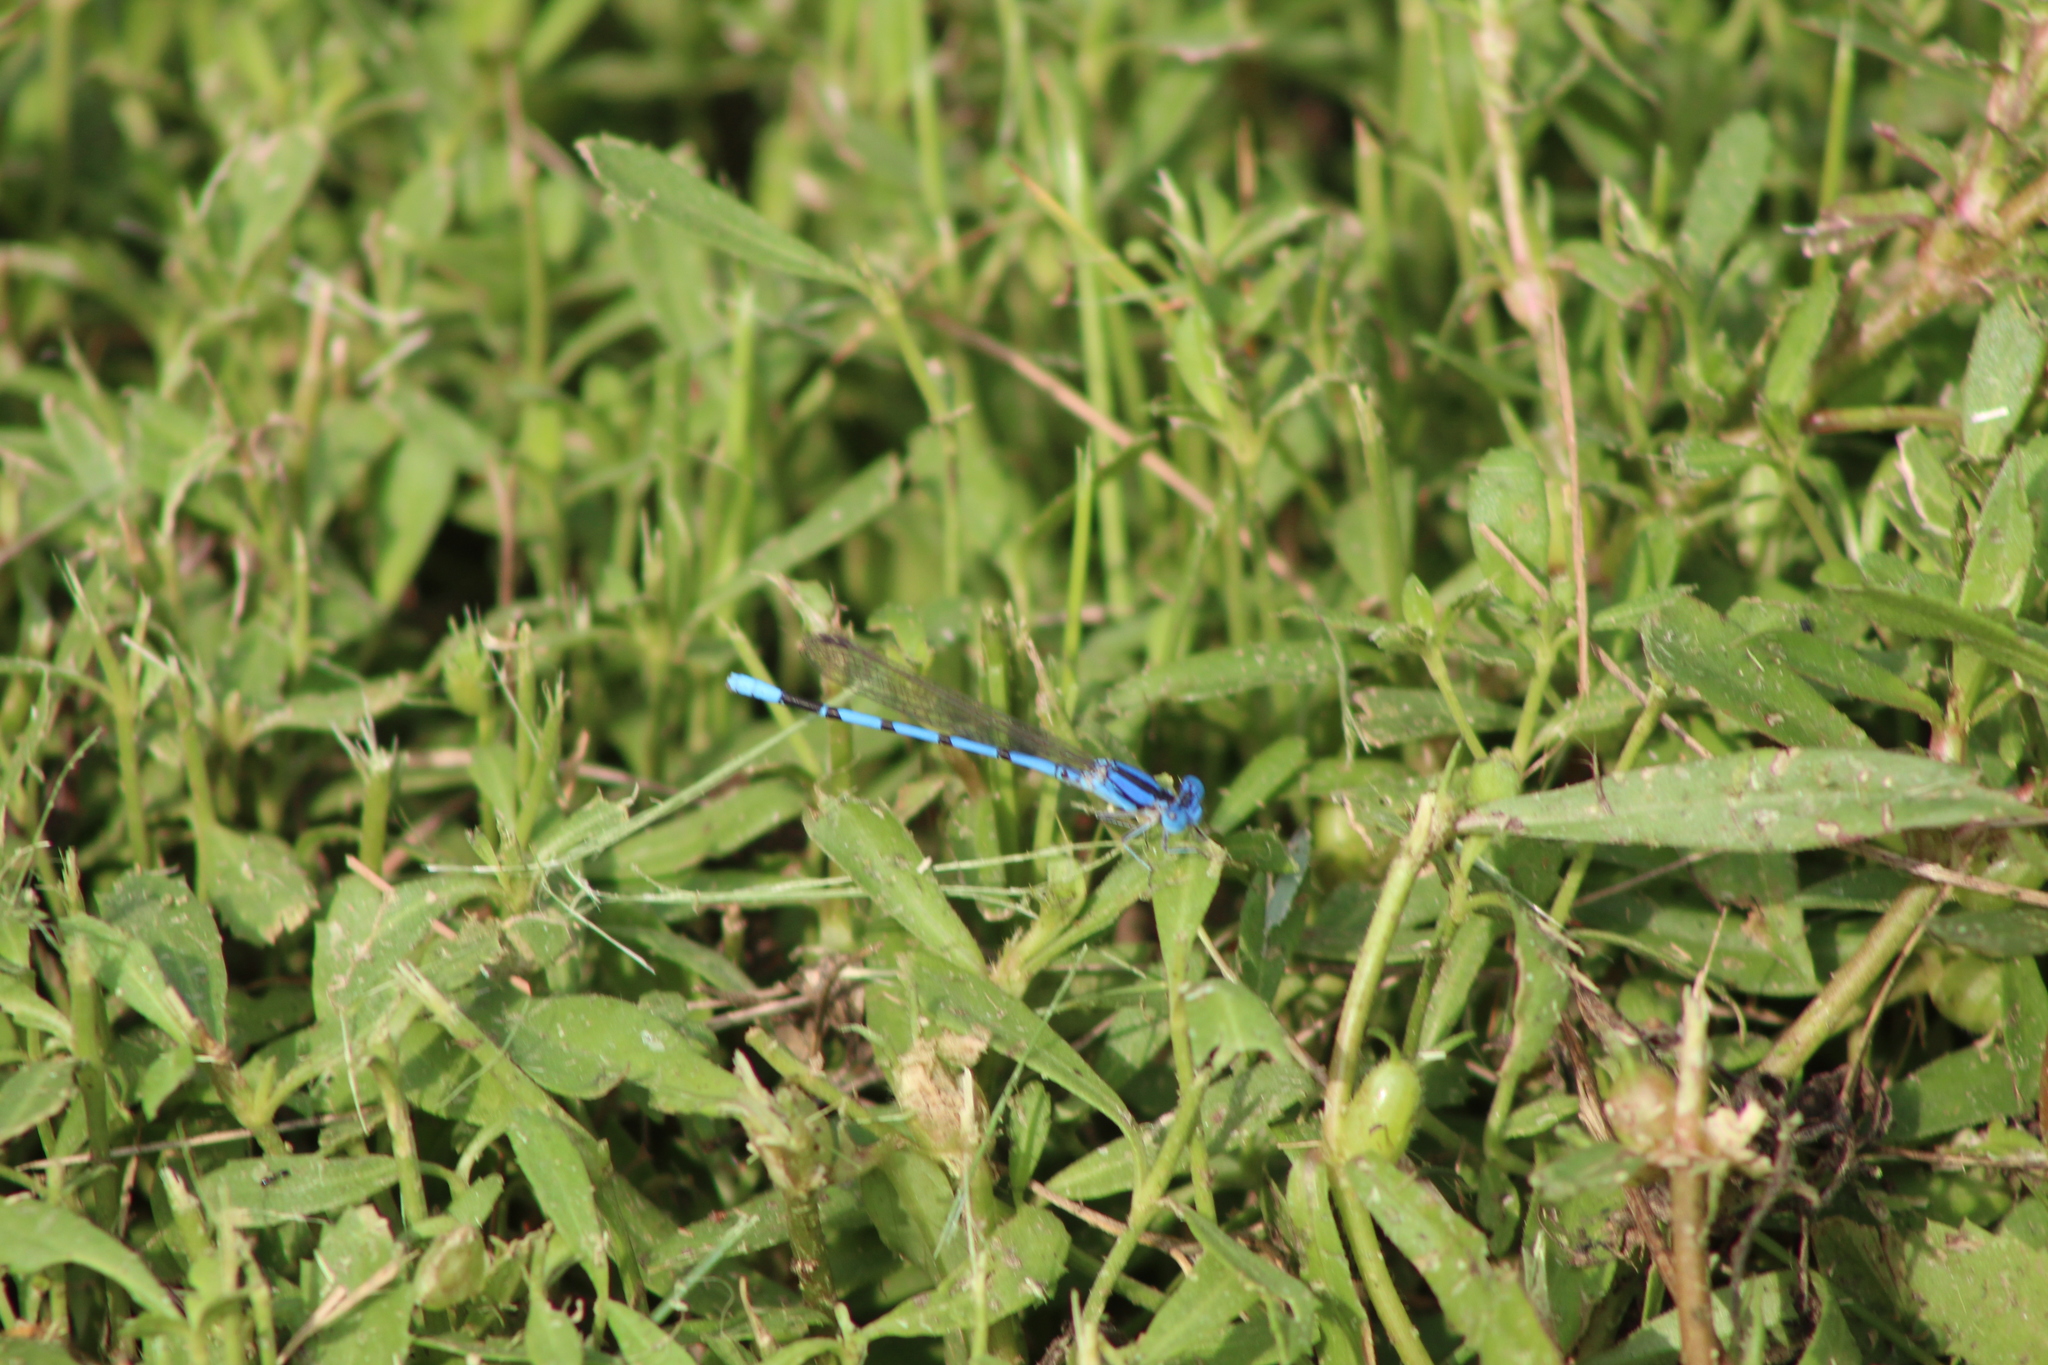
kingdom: Animalia
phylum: Arthropoda
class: Insecta
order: Odonata
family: Coenagrionidae
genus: Argia
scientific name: Argia nahuana
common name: Aztec dancer
